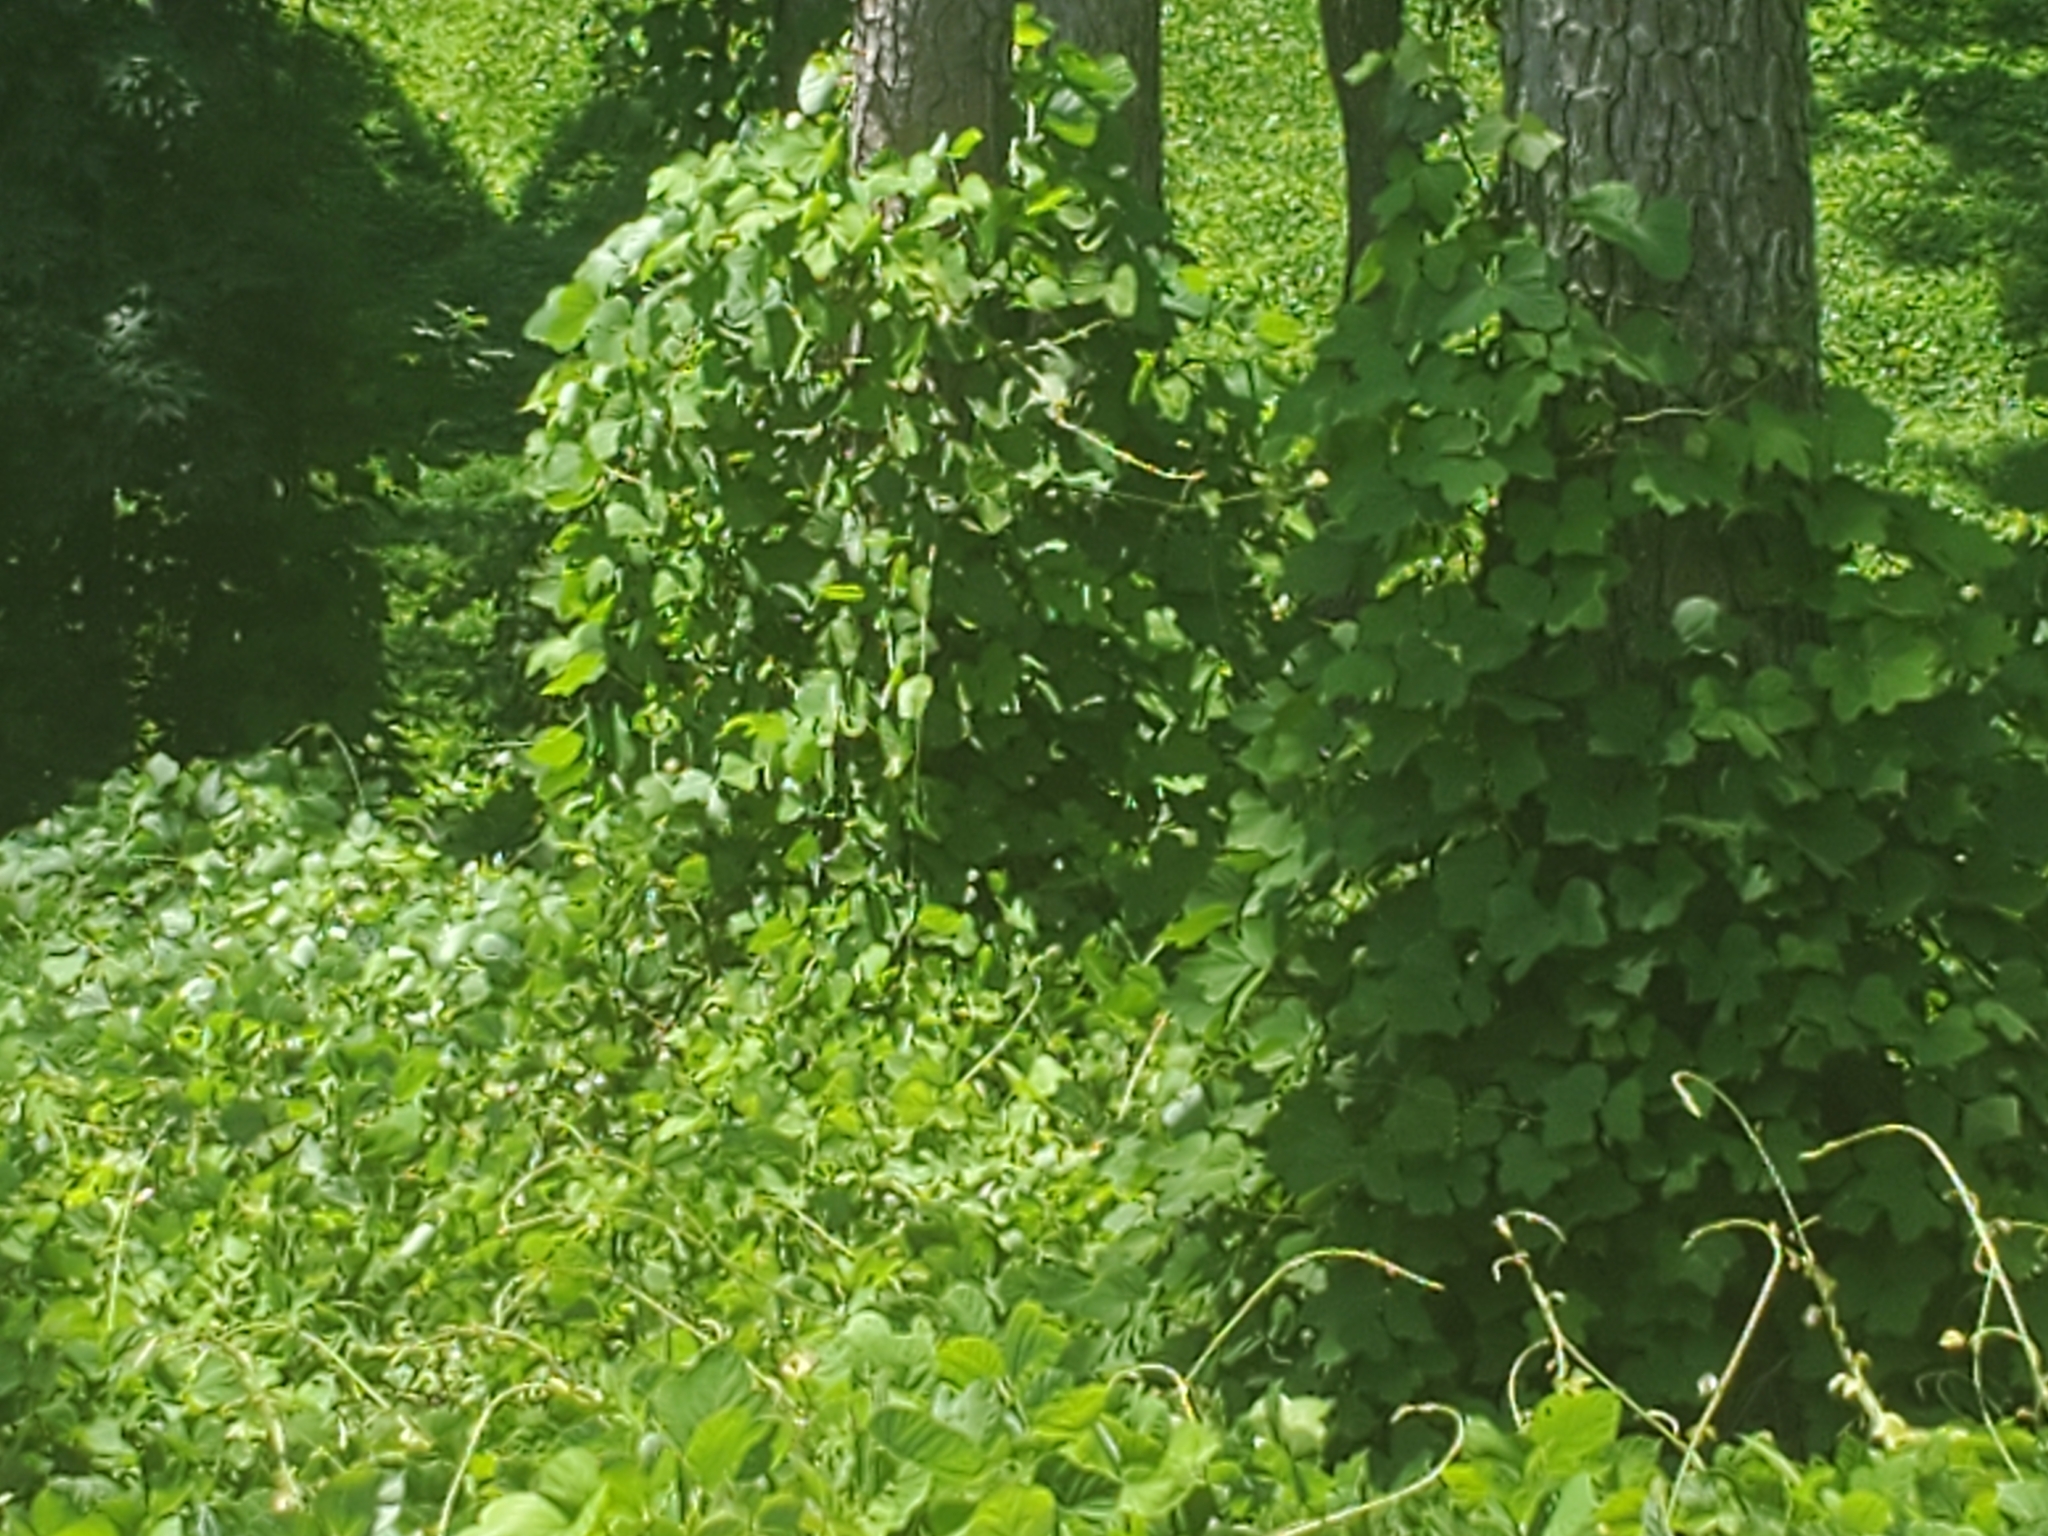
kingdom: Plantae
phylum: Tracheophyta
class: Magnoliopsida
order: Fabales
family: Fabaceae
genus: Pueraria
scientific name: Pueraria montana
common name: Kudzu
